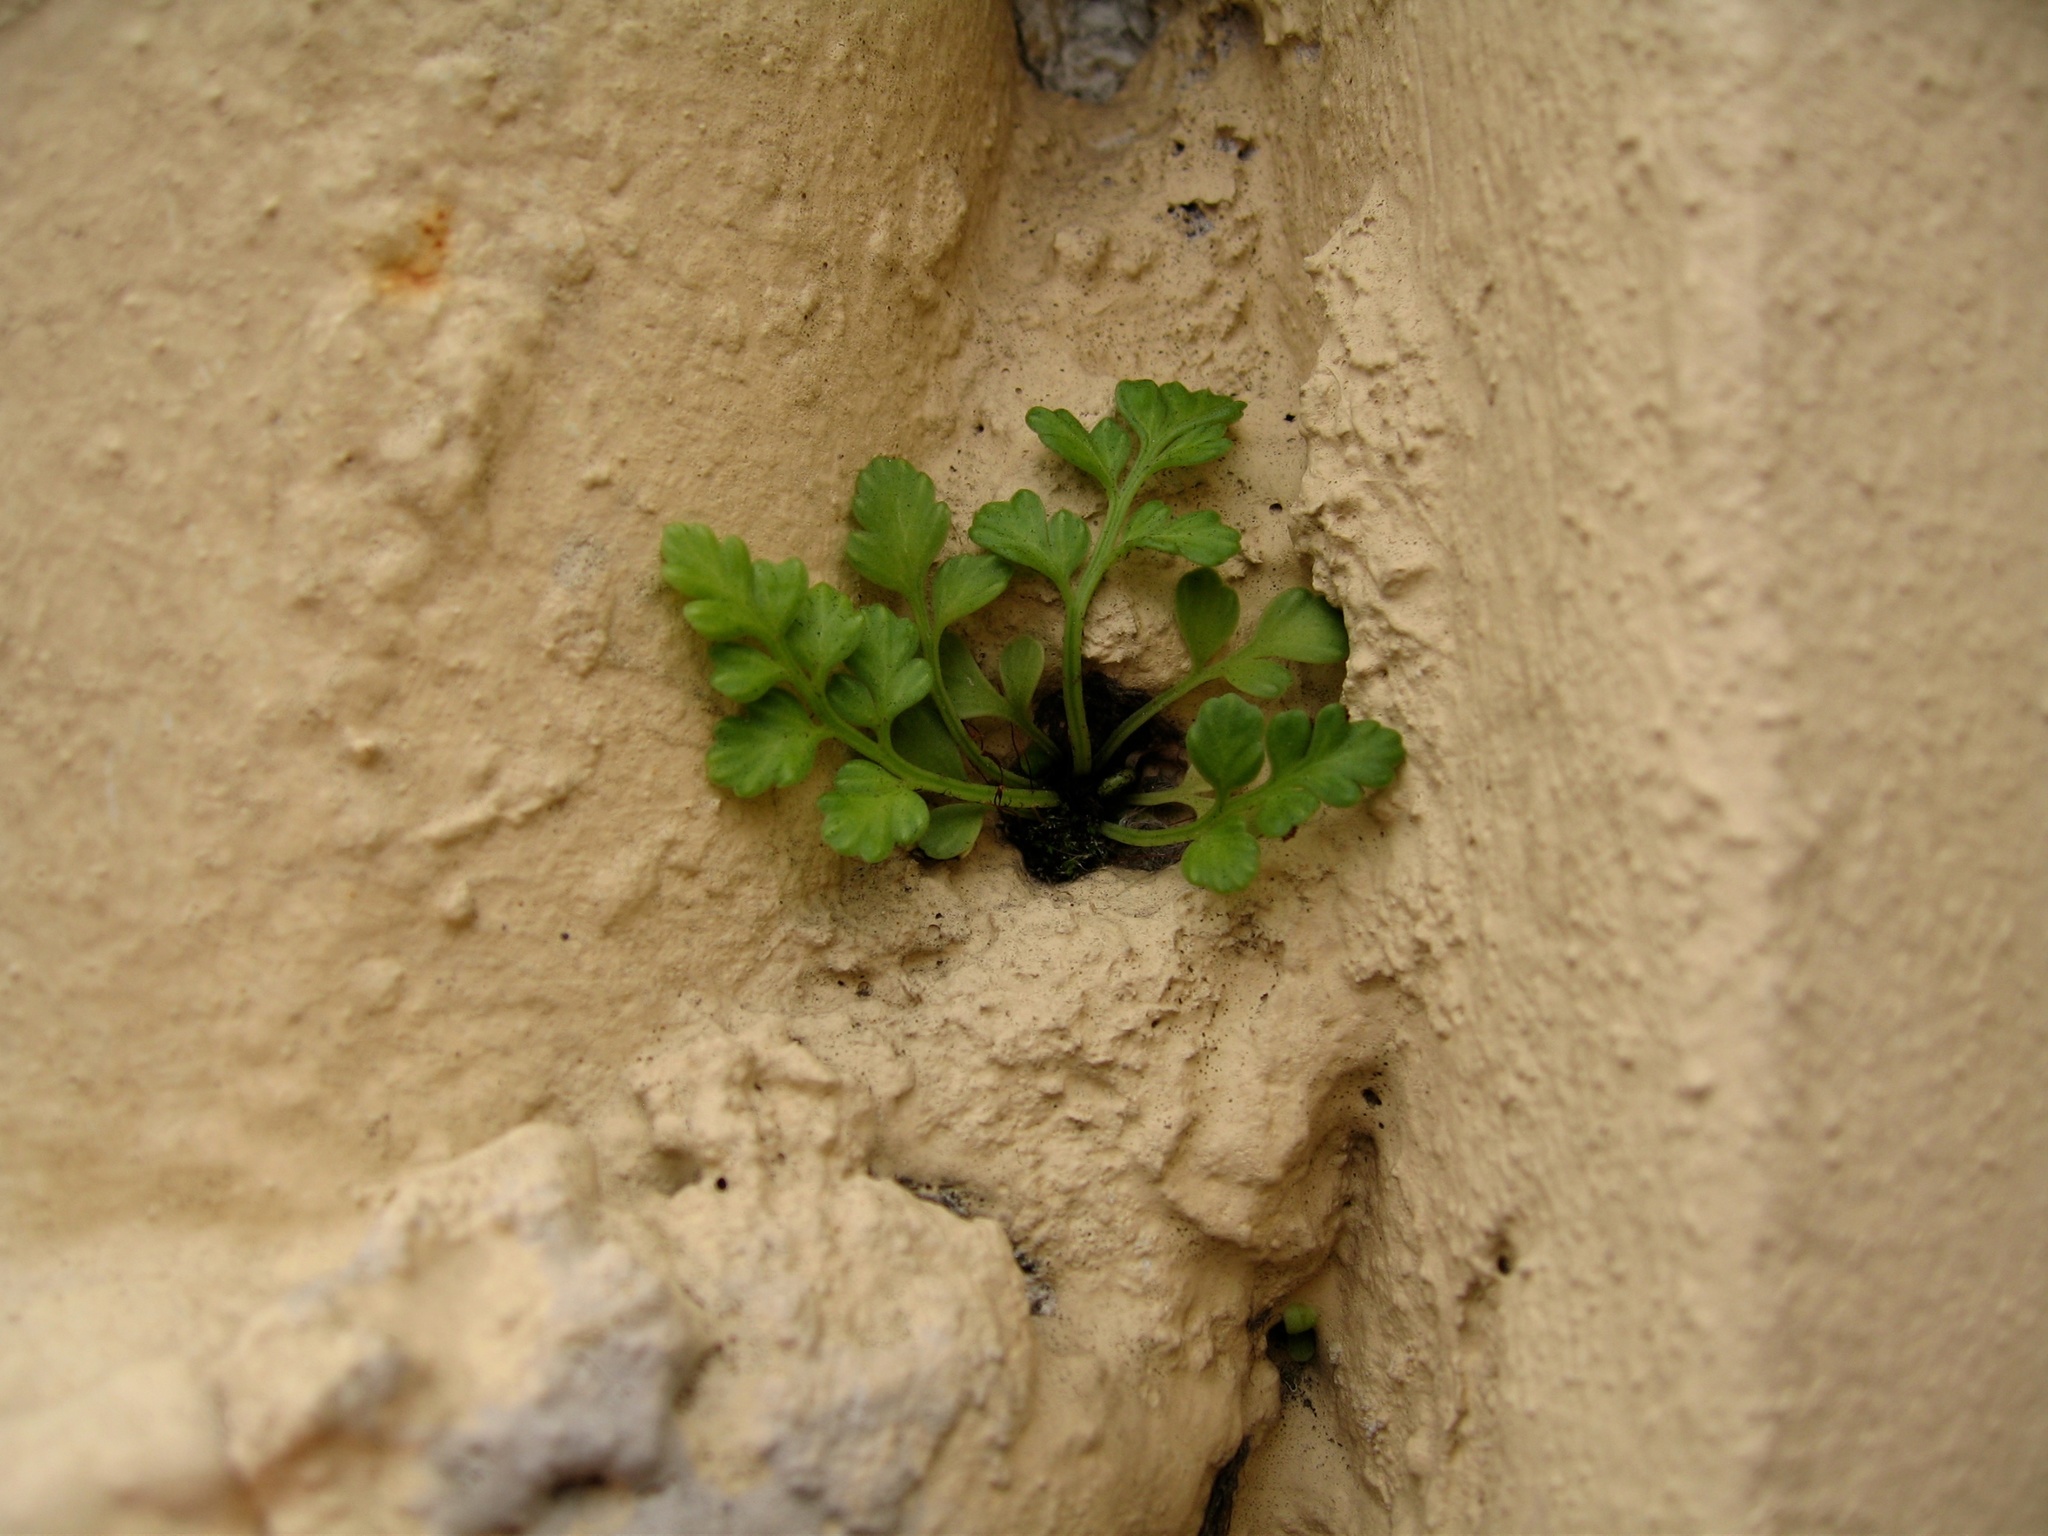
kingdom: Plantae
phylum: Tracheophyta
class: Polypodiopsida
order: Polypodiales
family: Aspleniaceae
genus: Asplenium
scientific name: Asplenium appendiculatum
